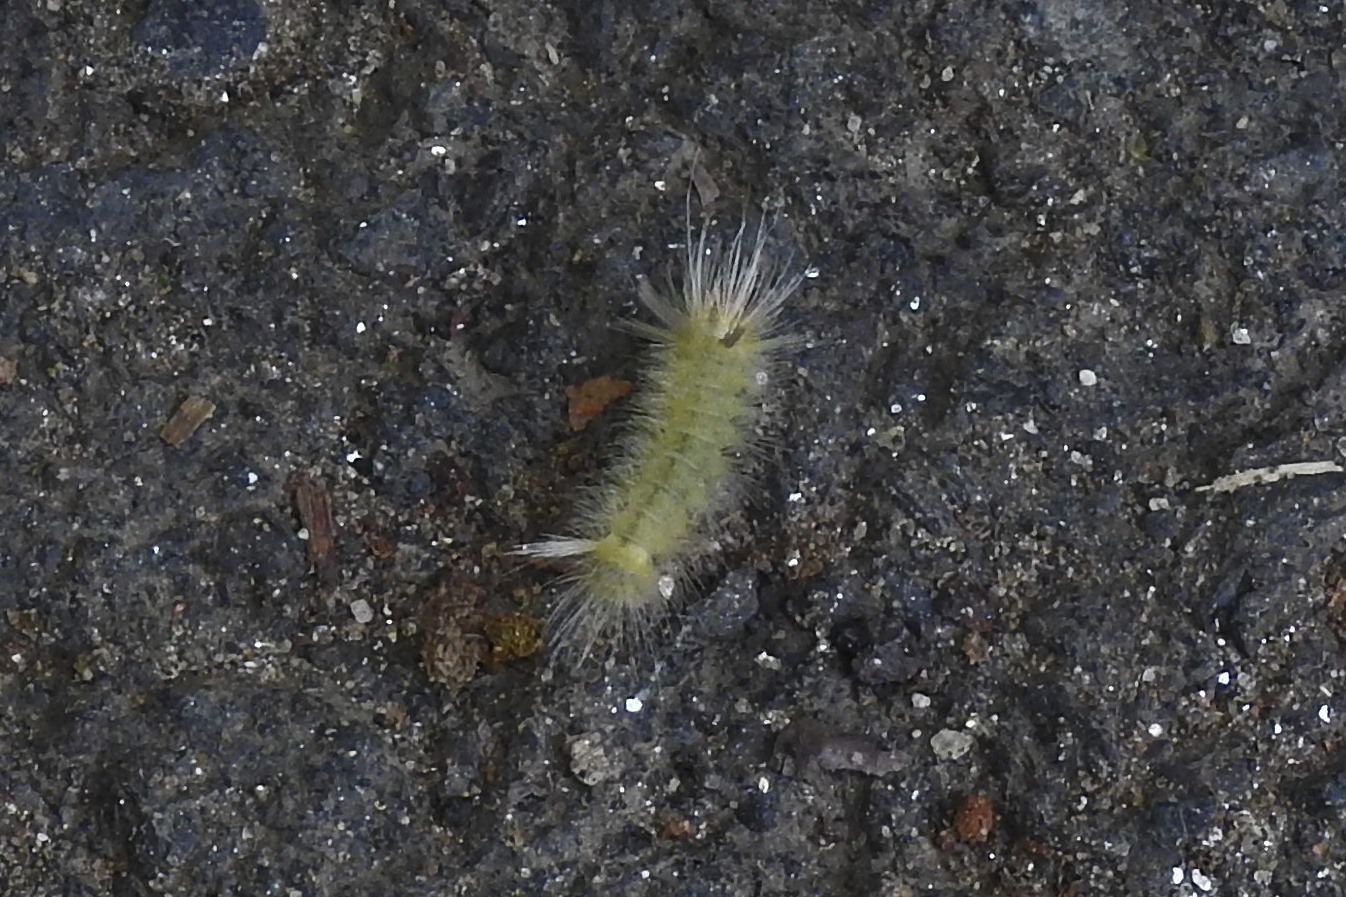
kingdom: Animalia
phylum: Arthropoda
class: Insecta
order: Lepidoptera
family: Erebidae
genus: Halysidota
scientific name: Halysidota harrisii
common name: Sycamore tussock moth
